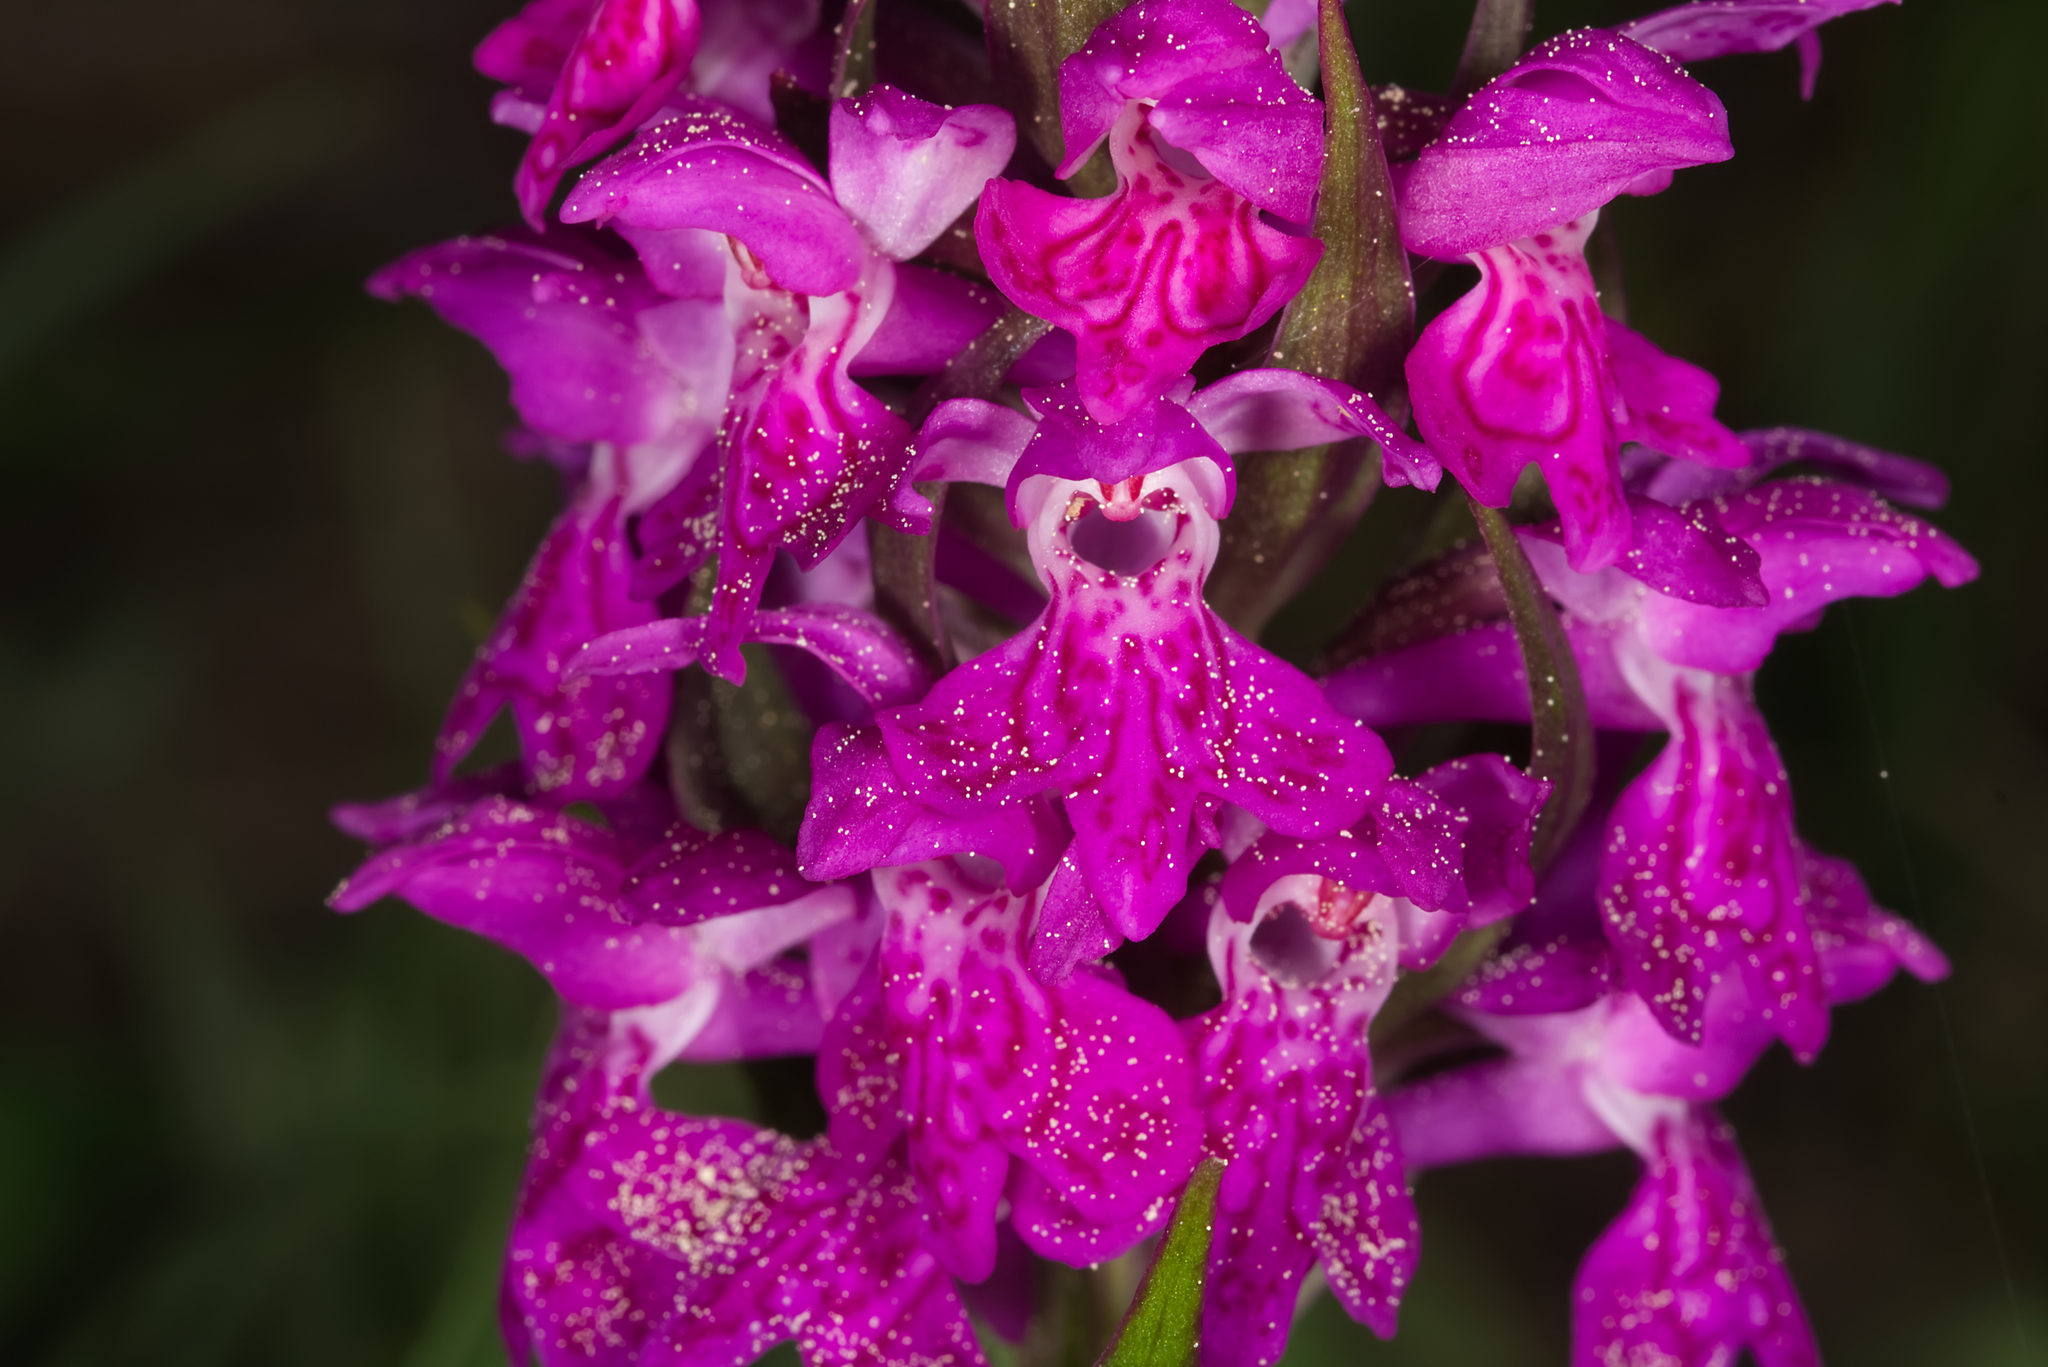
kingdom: Plantae
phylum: Tracheophyta
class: Liliopsida
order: Asparagales
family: Orchidaceae
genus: Dactylorhiza
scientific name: Dactylorhiza majalis
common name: Marsh orchid
